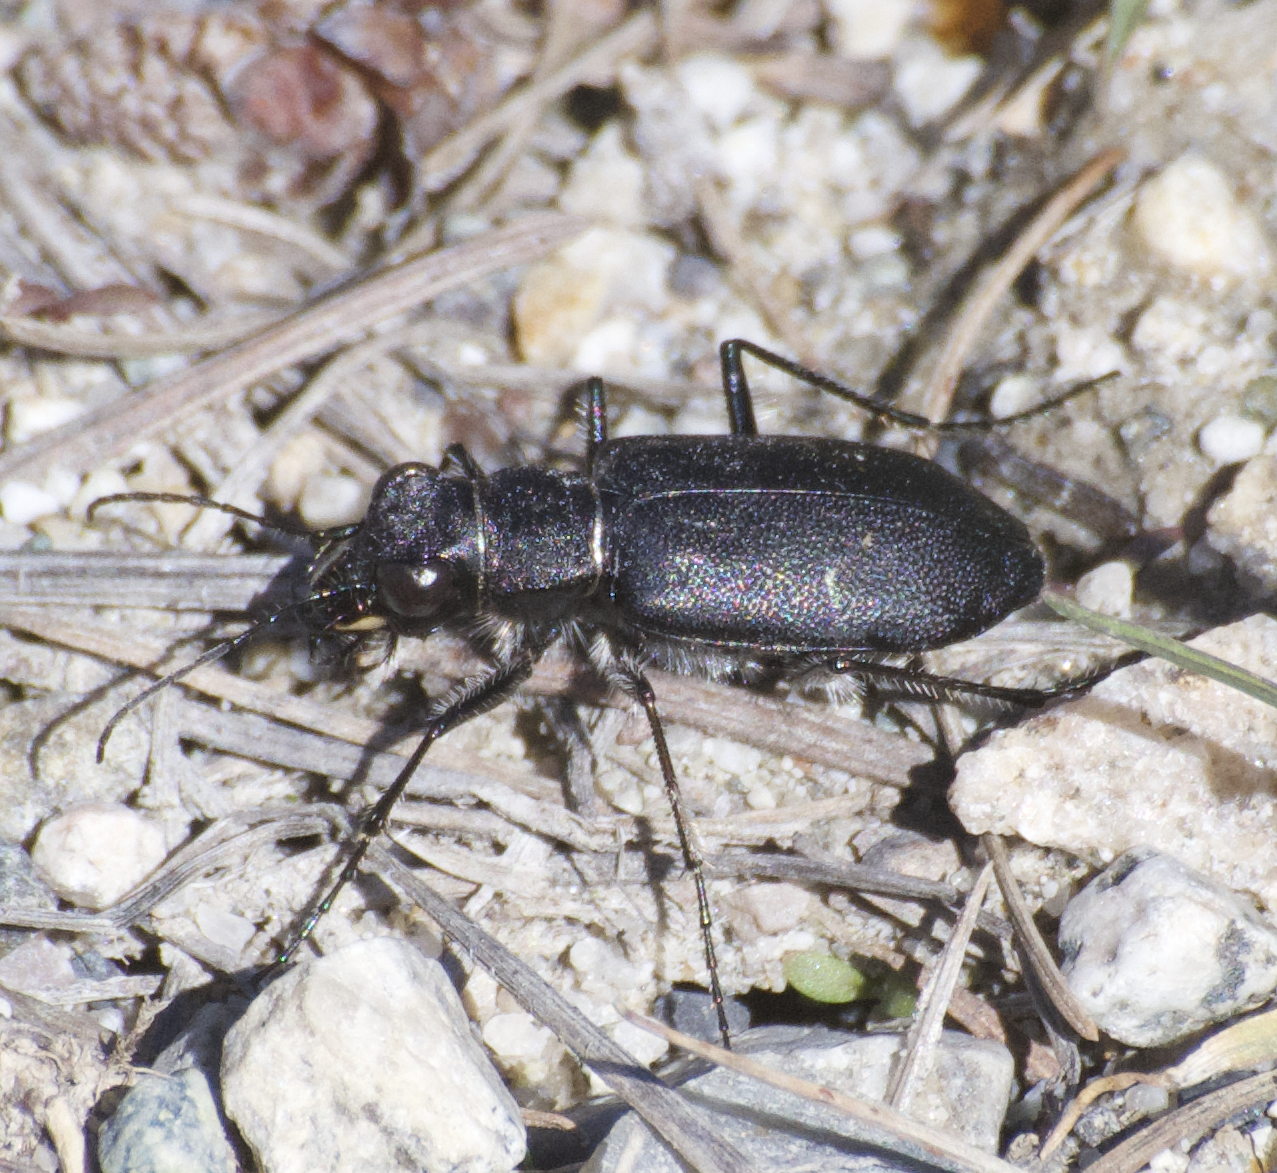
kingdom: Animalia
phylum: Arthropoda
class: Insecta
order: Coleoptera
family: Carabidae
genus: Cicindela
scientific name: Cicindela longilabris
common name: Boreal long-lipped tiger beetle
